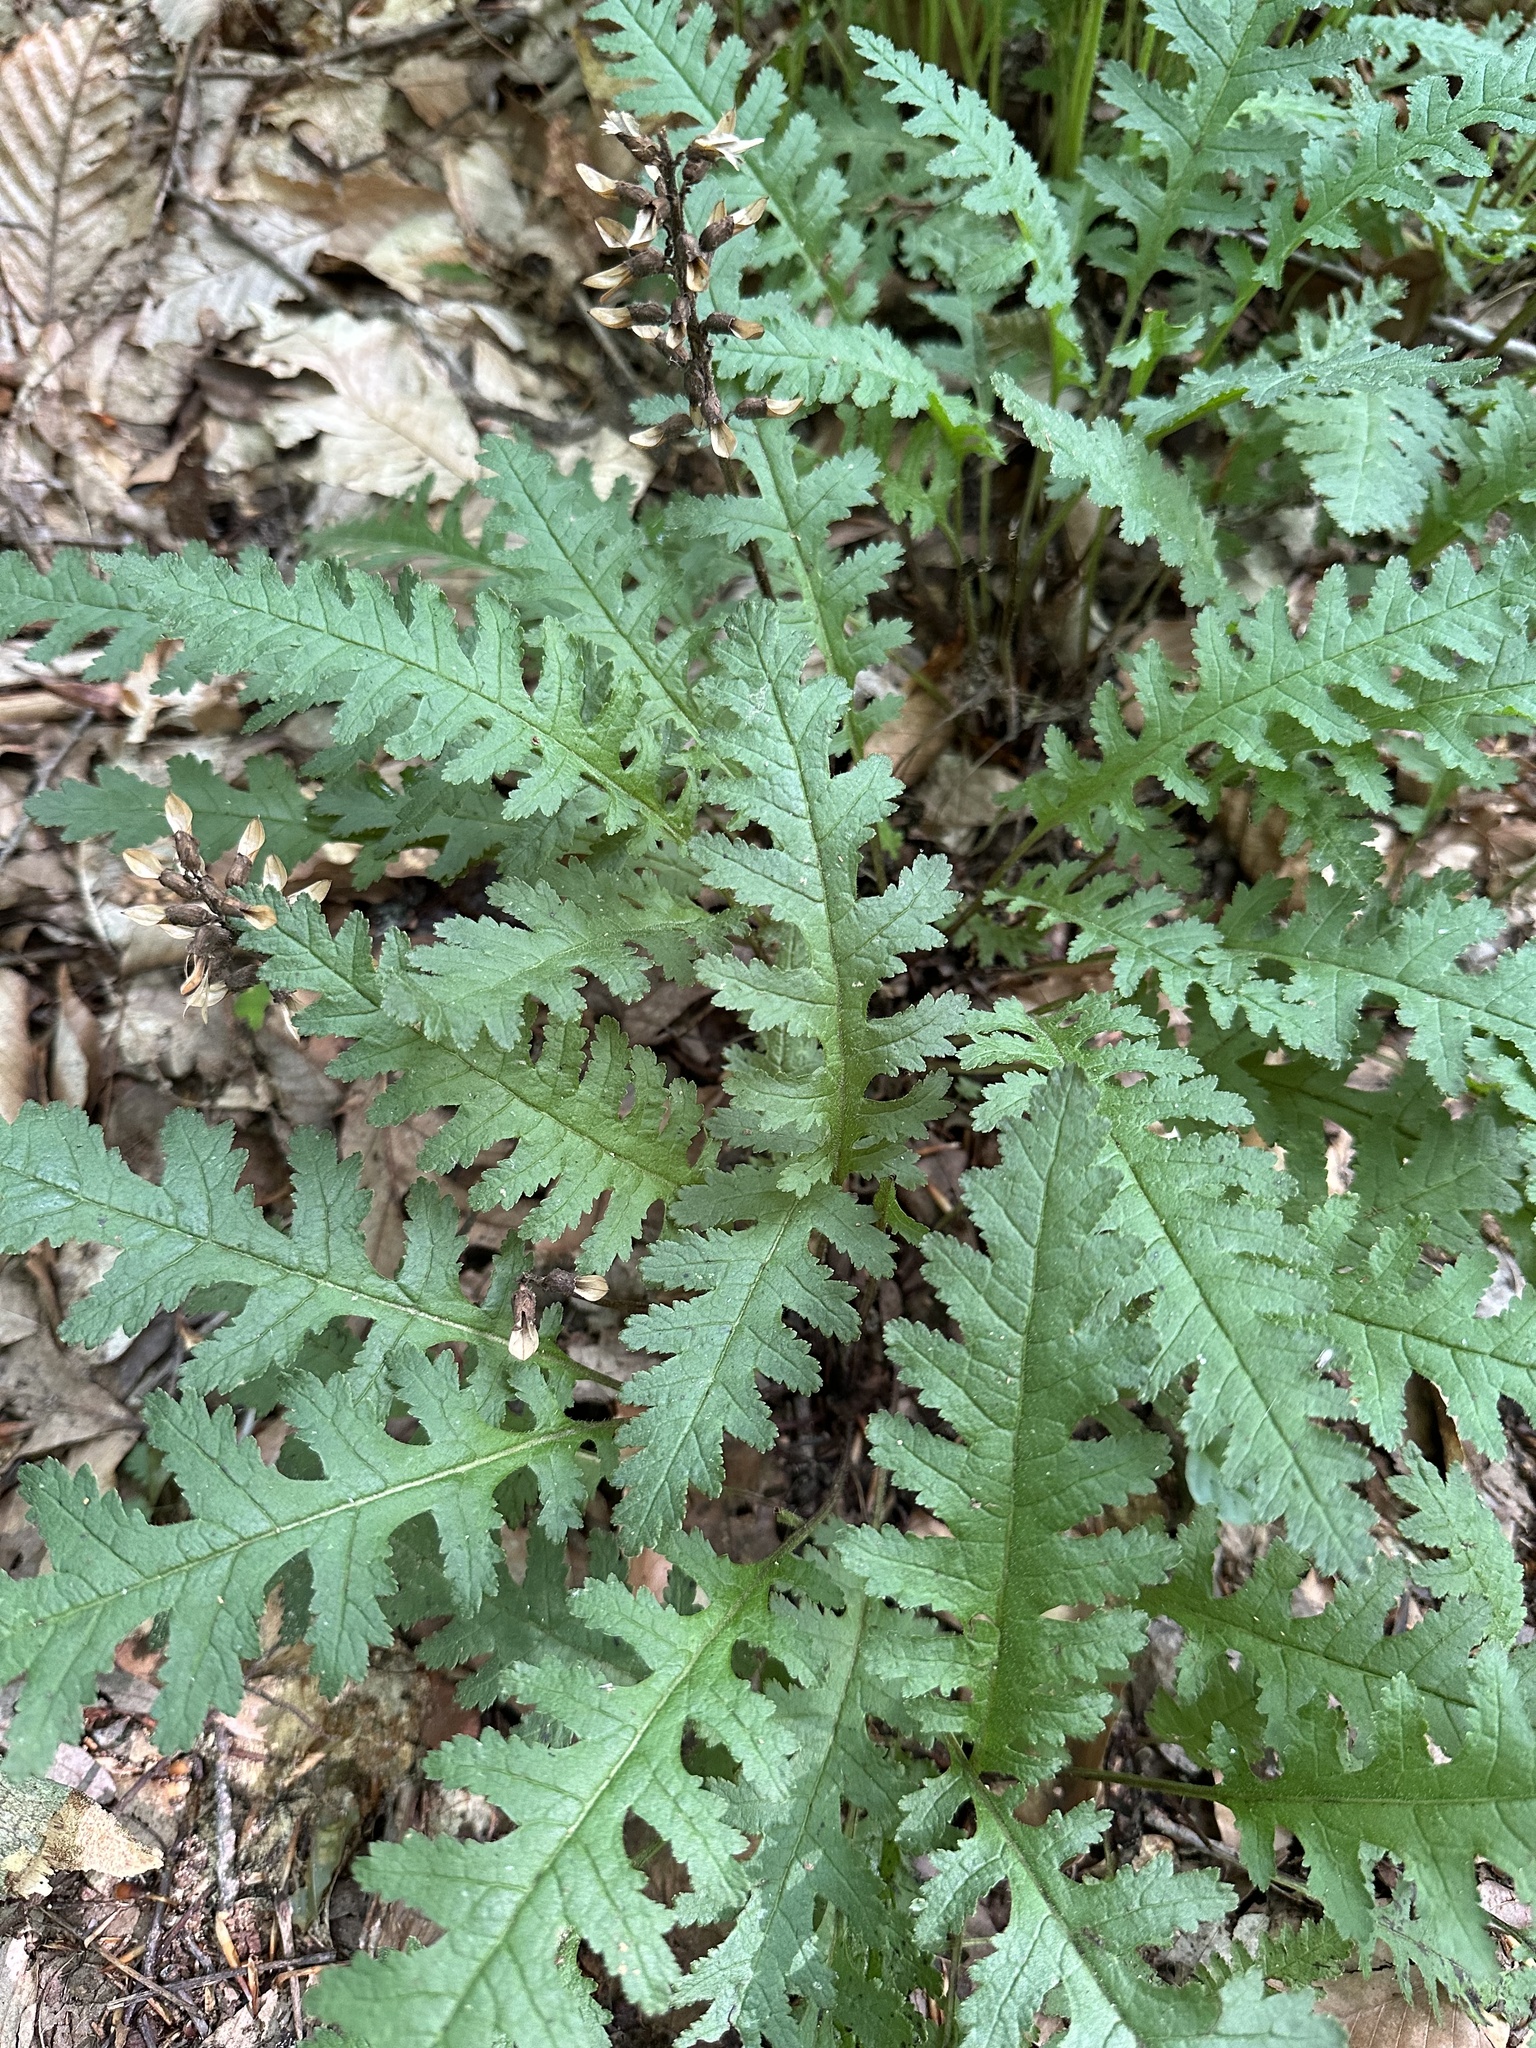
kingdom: Plantae
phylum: Tracheophyta
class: Magnoliopsida
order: Lamiales
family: Orobanchaceae
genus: Pedicularis
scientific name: Pedicularis canadensis
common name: Early lousewort
